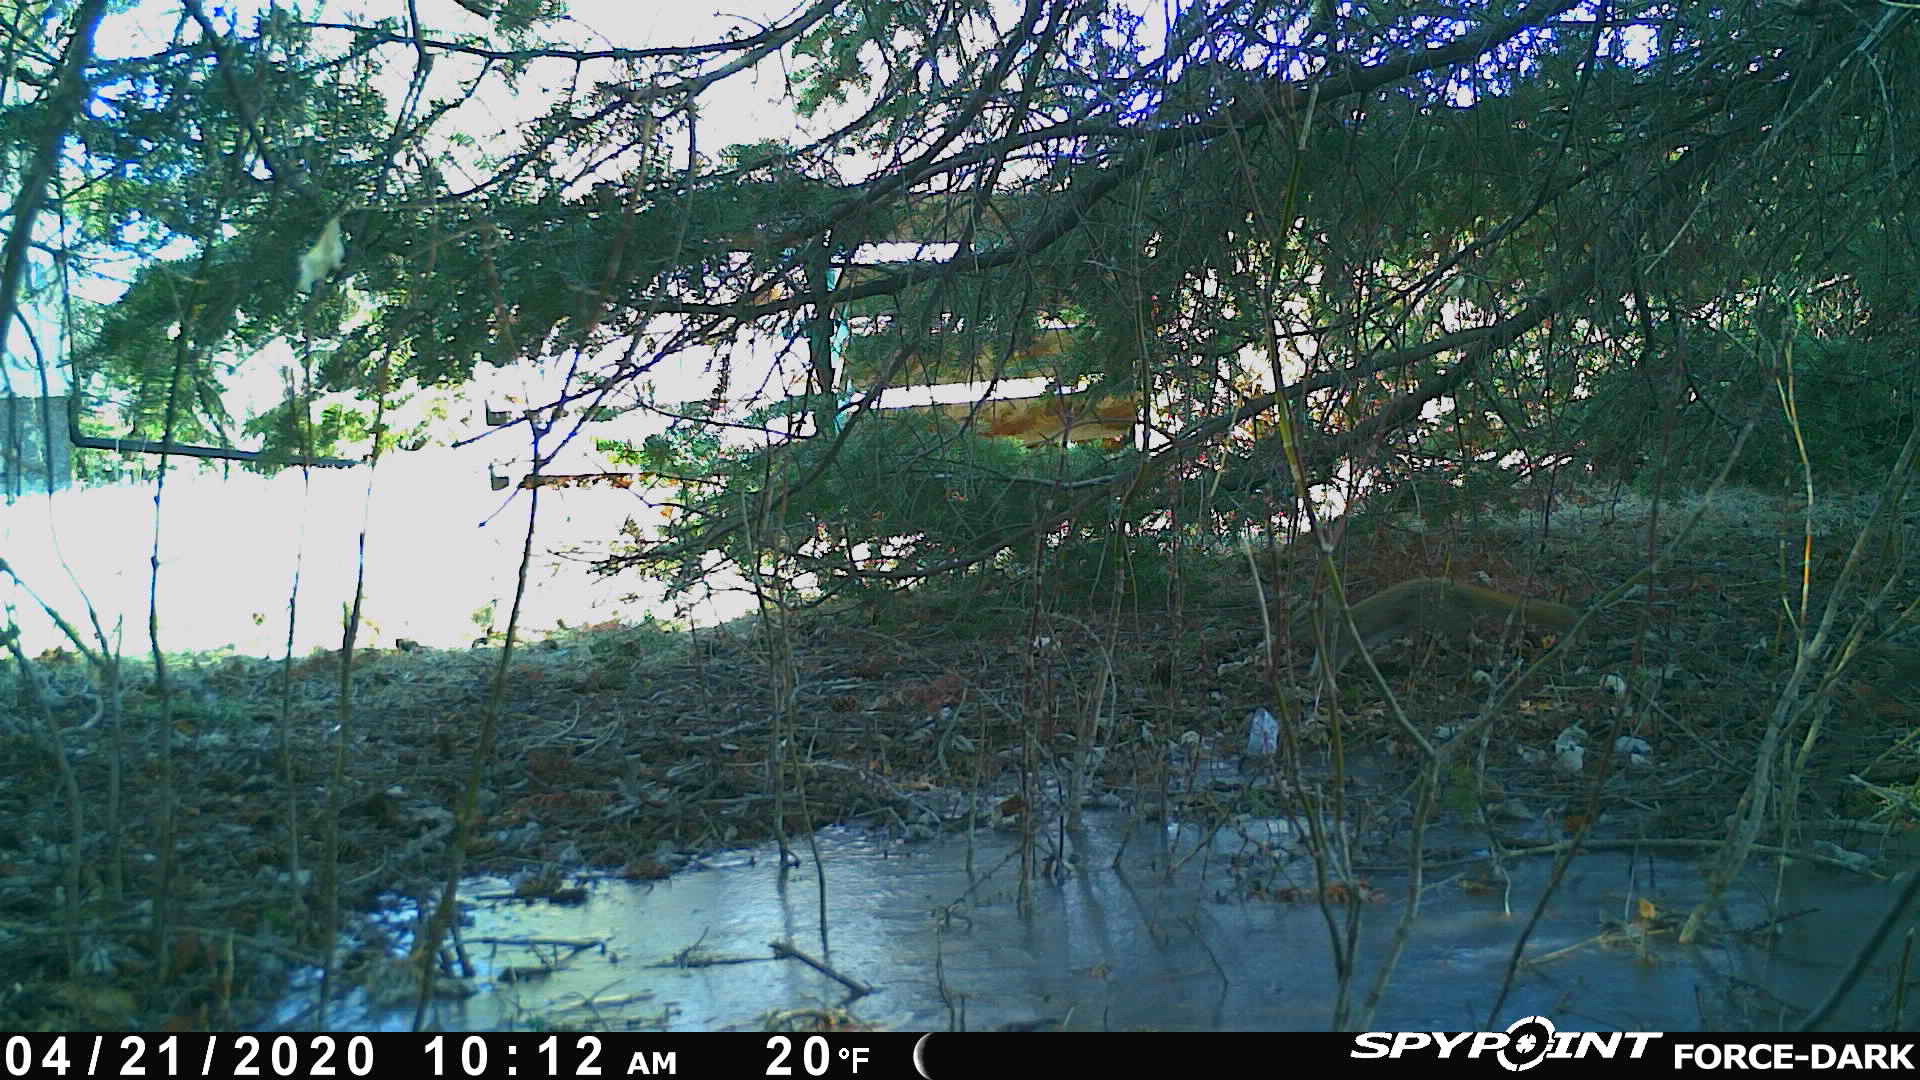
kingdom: Animalia
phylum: Chordata
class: Mammalia
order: Rodentia
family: Sciuridae
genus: Tamiasciurus
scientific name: Tamiasciurus hudsonicus
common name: Red squirrel
